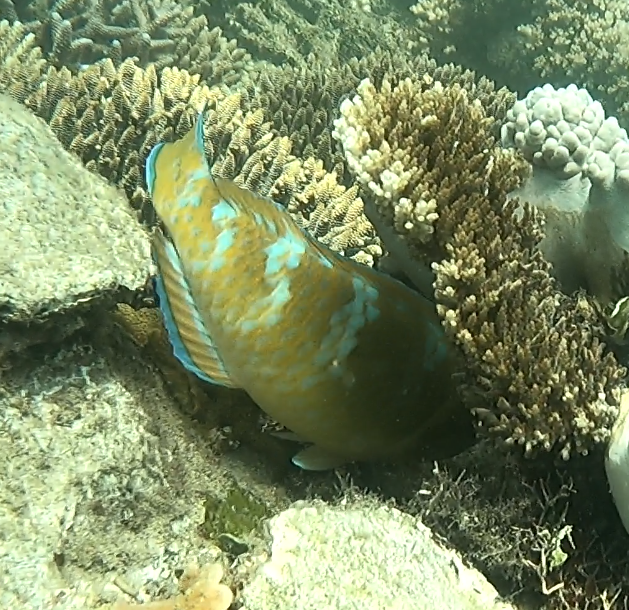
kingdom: Animalia
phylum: Chordata
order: Perciformes
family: Scaridae
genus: Scarus
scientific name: Scarus ghobban
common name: Blue-barred parrotfish
